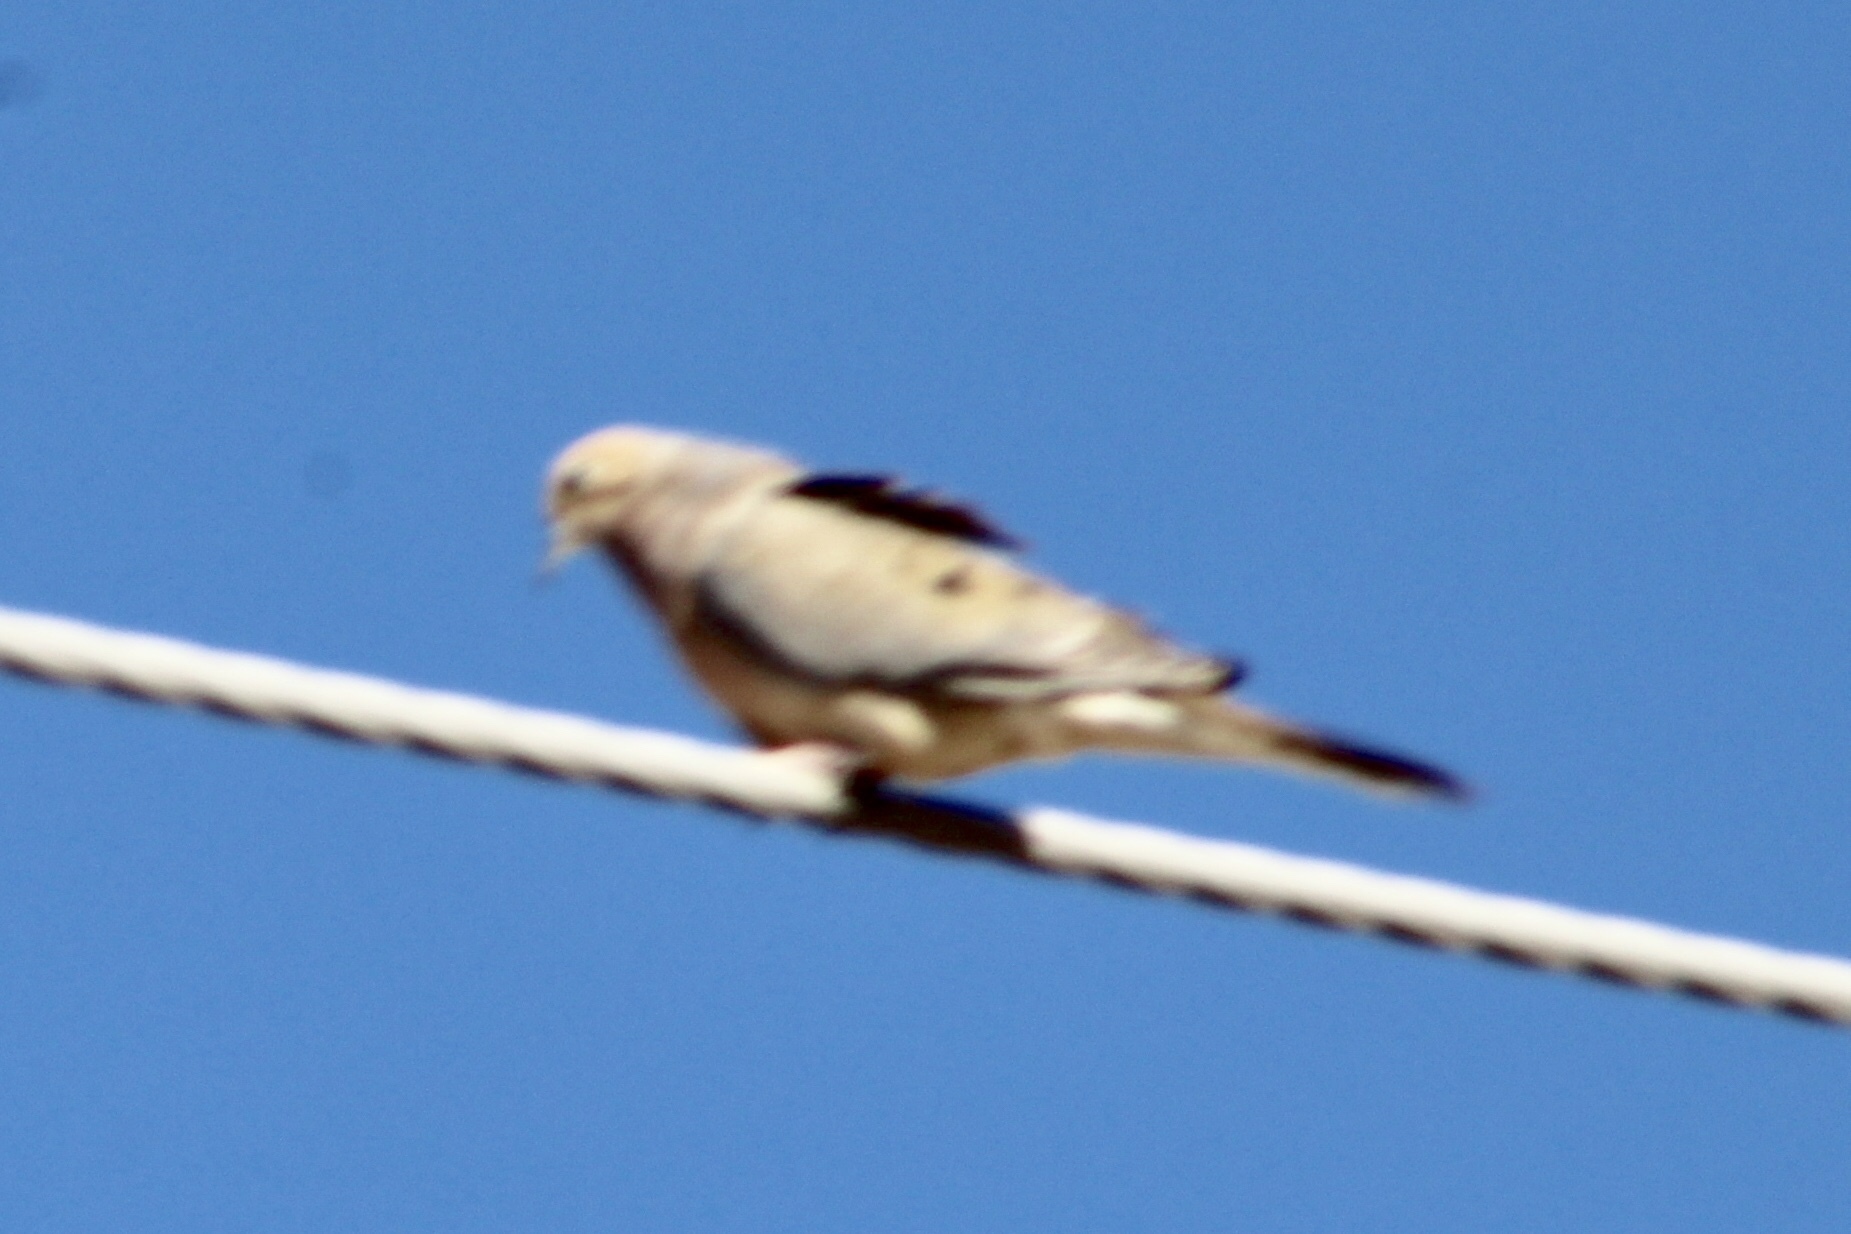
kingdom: Animalia
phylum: Chordata
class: Aves
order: Columbiformes
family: Columbidae
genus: Zenaida
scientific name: Zenaida macroura
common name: Mourning dove
